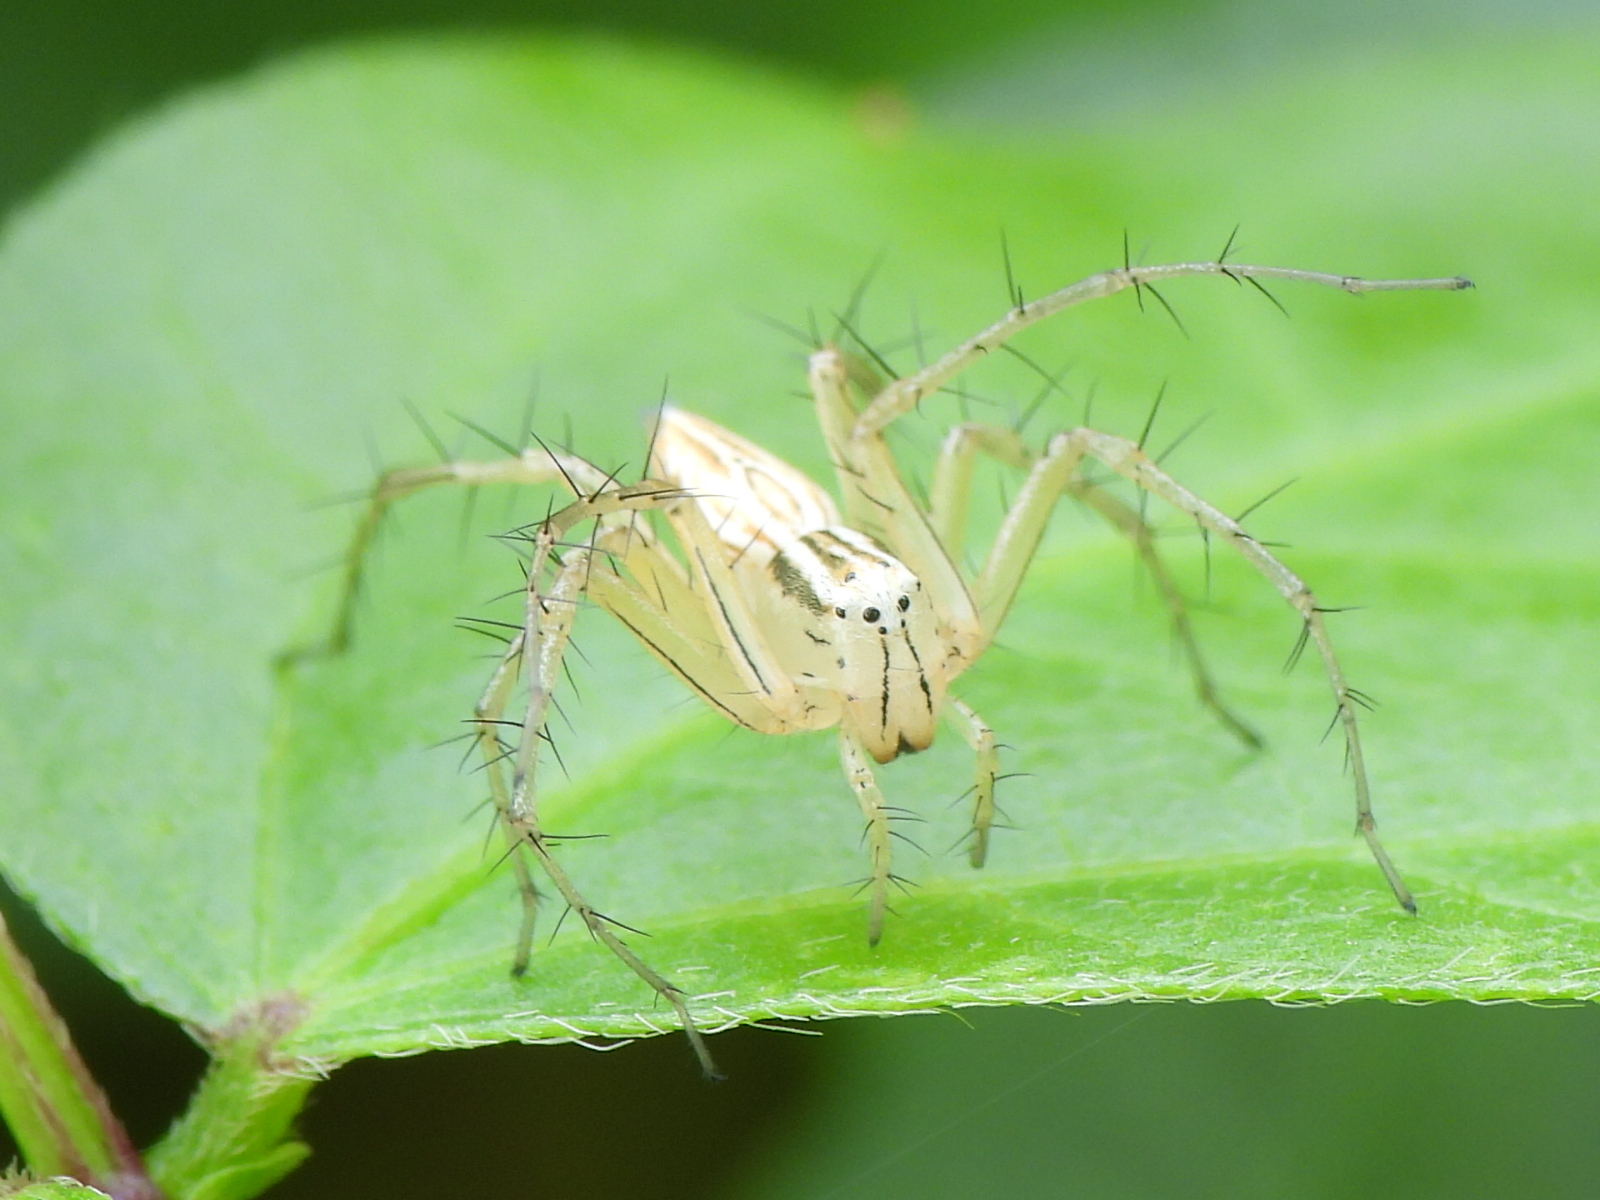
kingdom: Animalia
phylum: Arthropoda
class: Arachnida
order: Araneae
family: Oxyopidae
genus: Oxyopes
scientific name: Oxyopes salticus
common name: Lynx spiders
